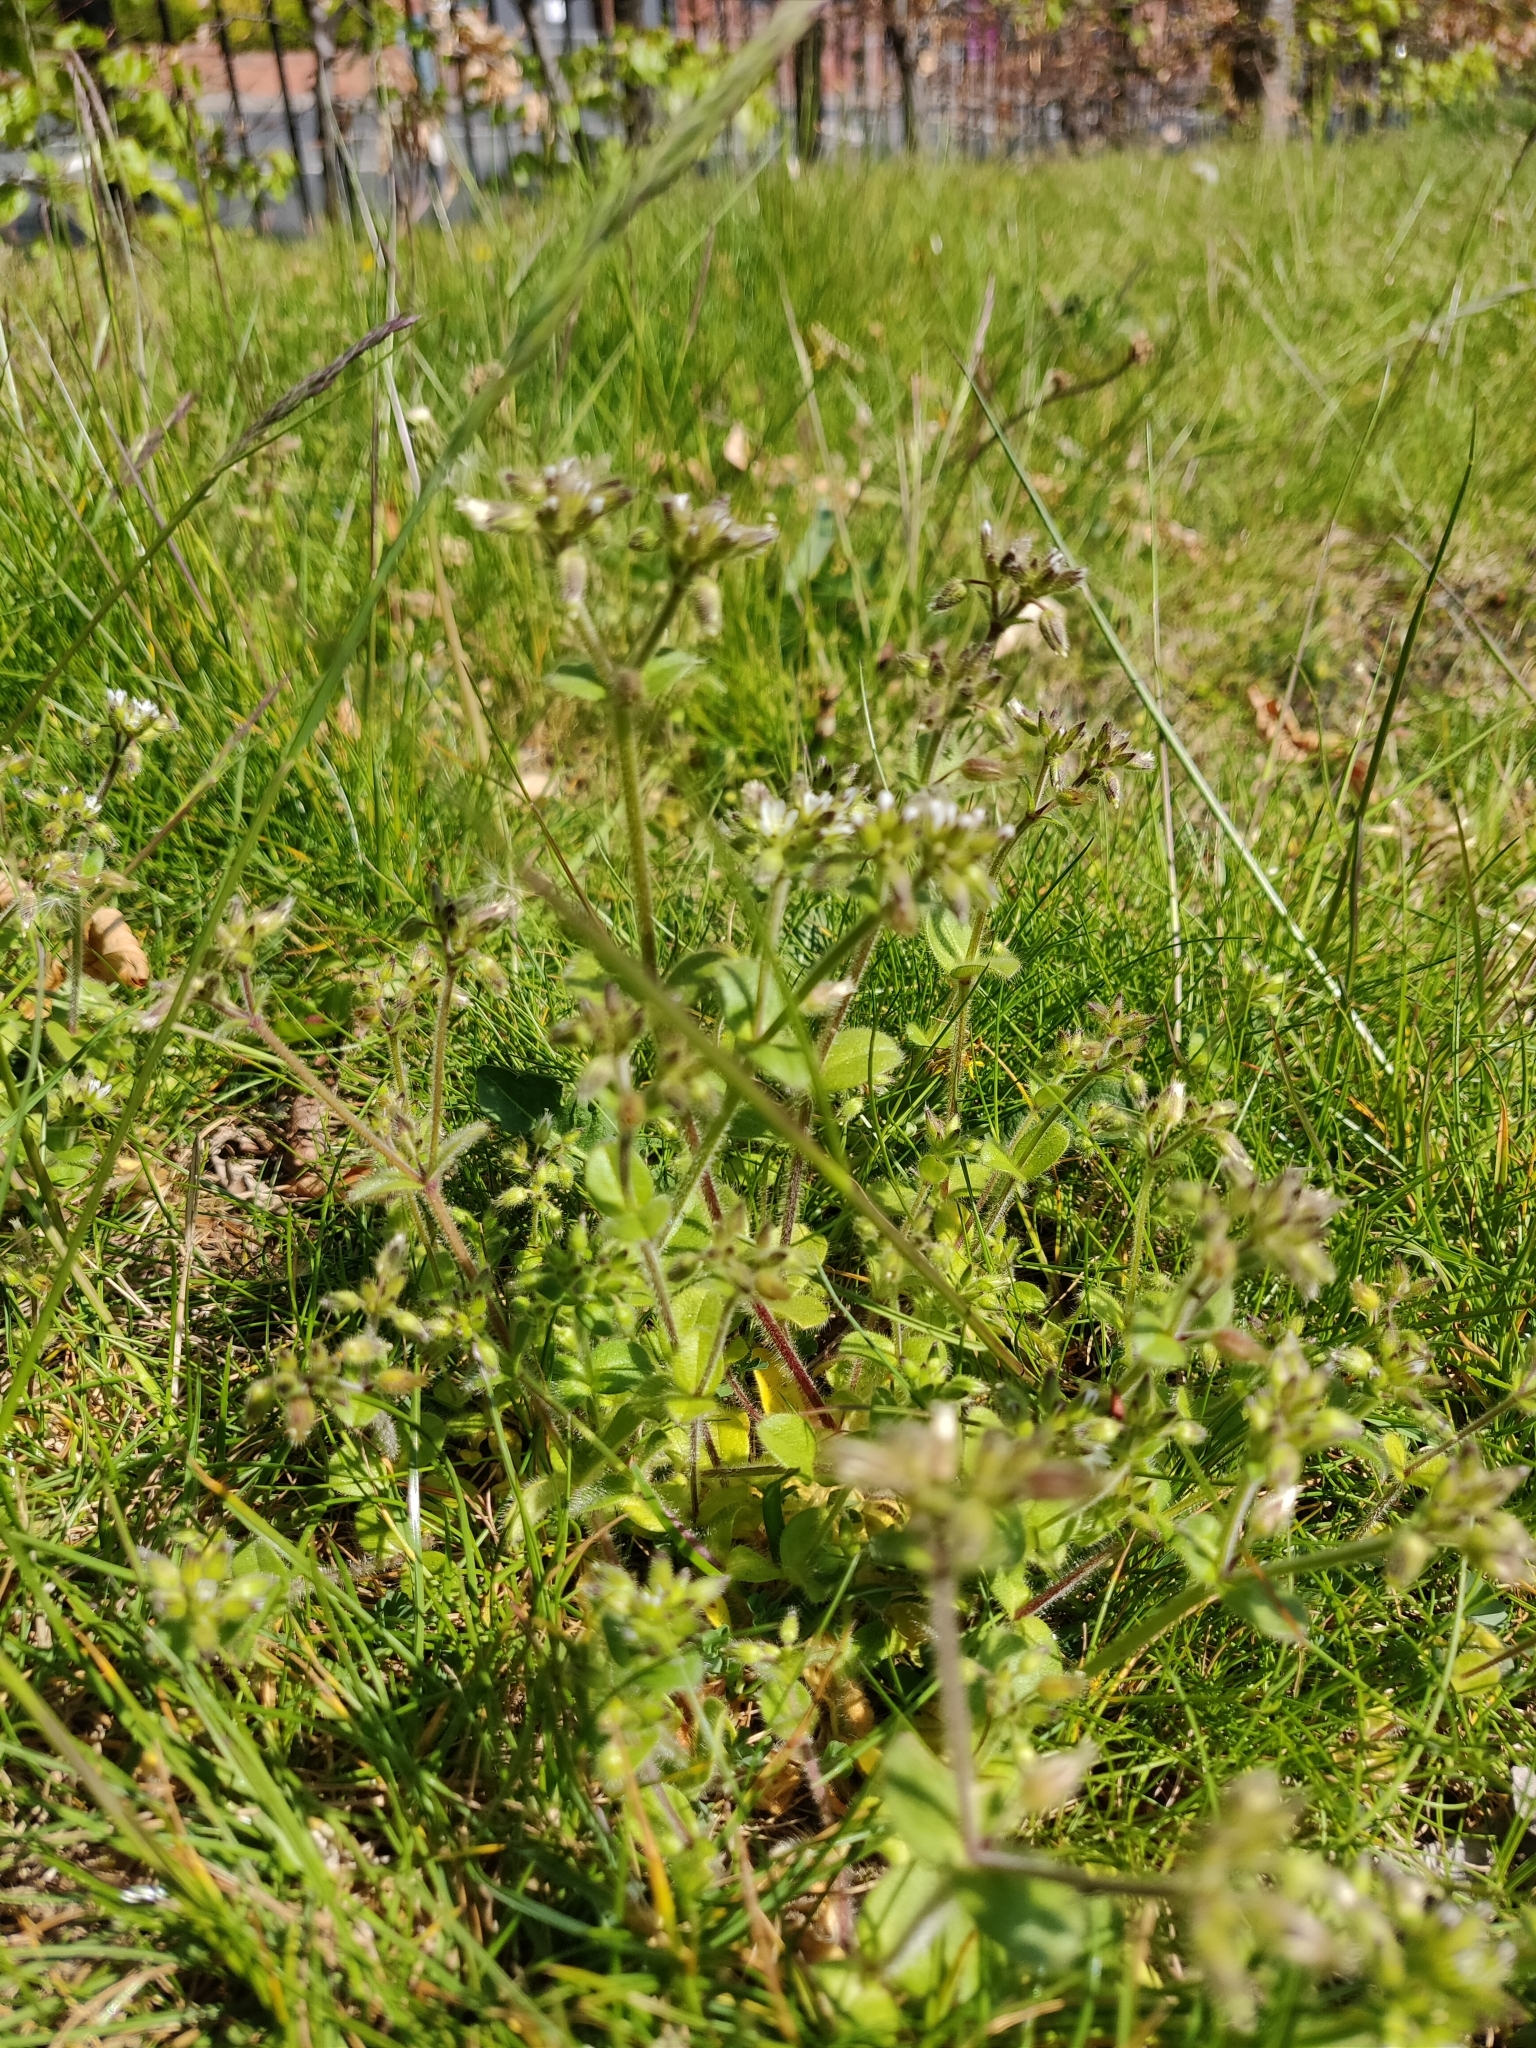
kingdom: Plantae
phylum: Tracheophyta
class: Magnoliopsida
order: Caryophyllales
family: Caryophyllaceae
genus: Cerastium
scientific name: Cerastium fontanum
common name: Common mouse-ear
